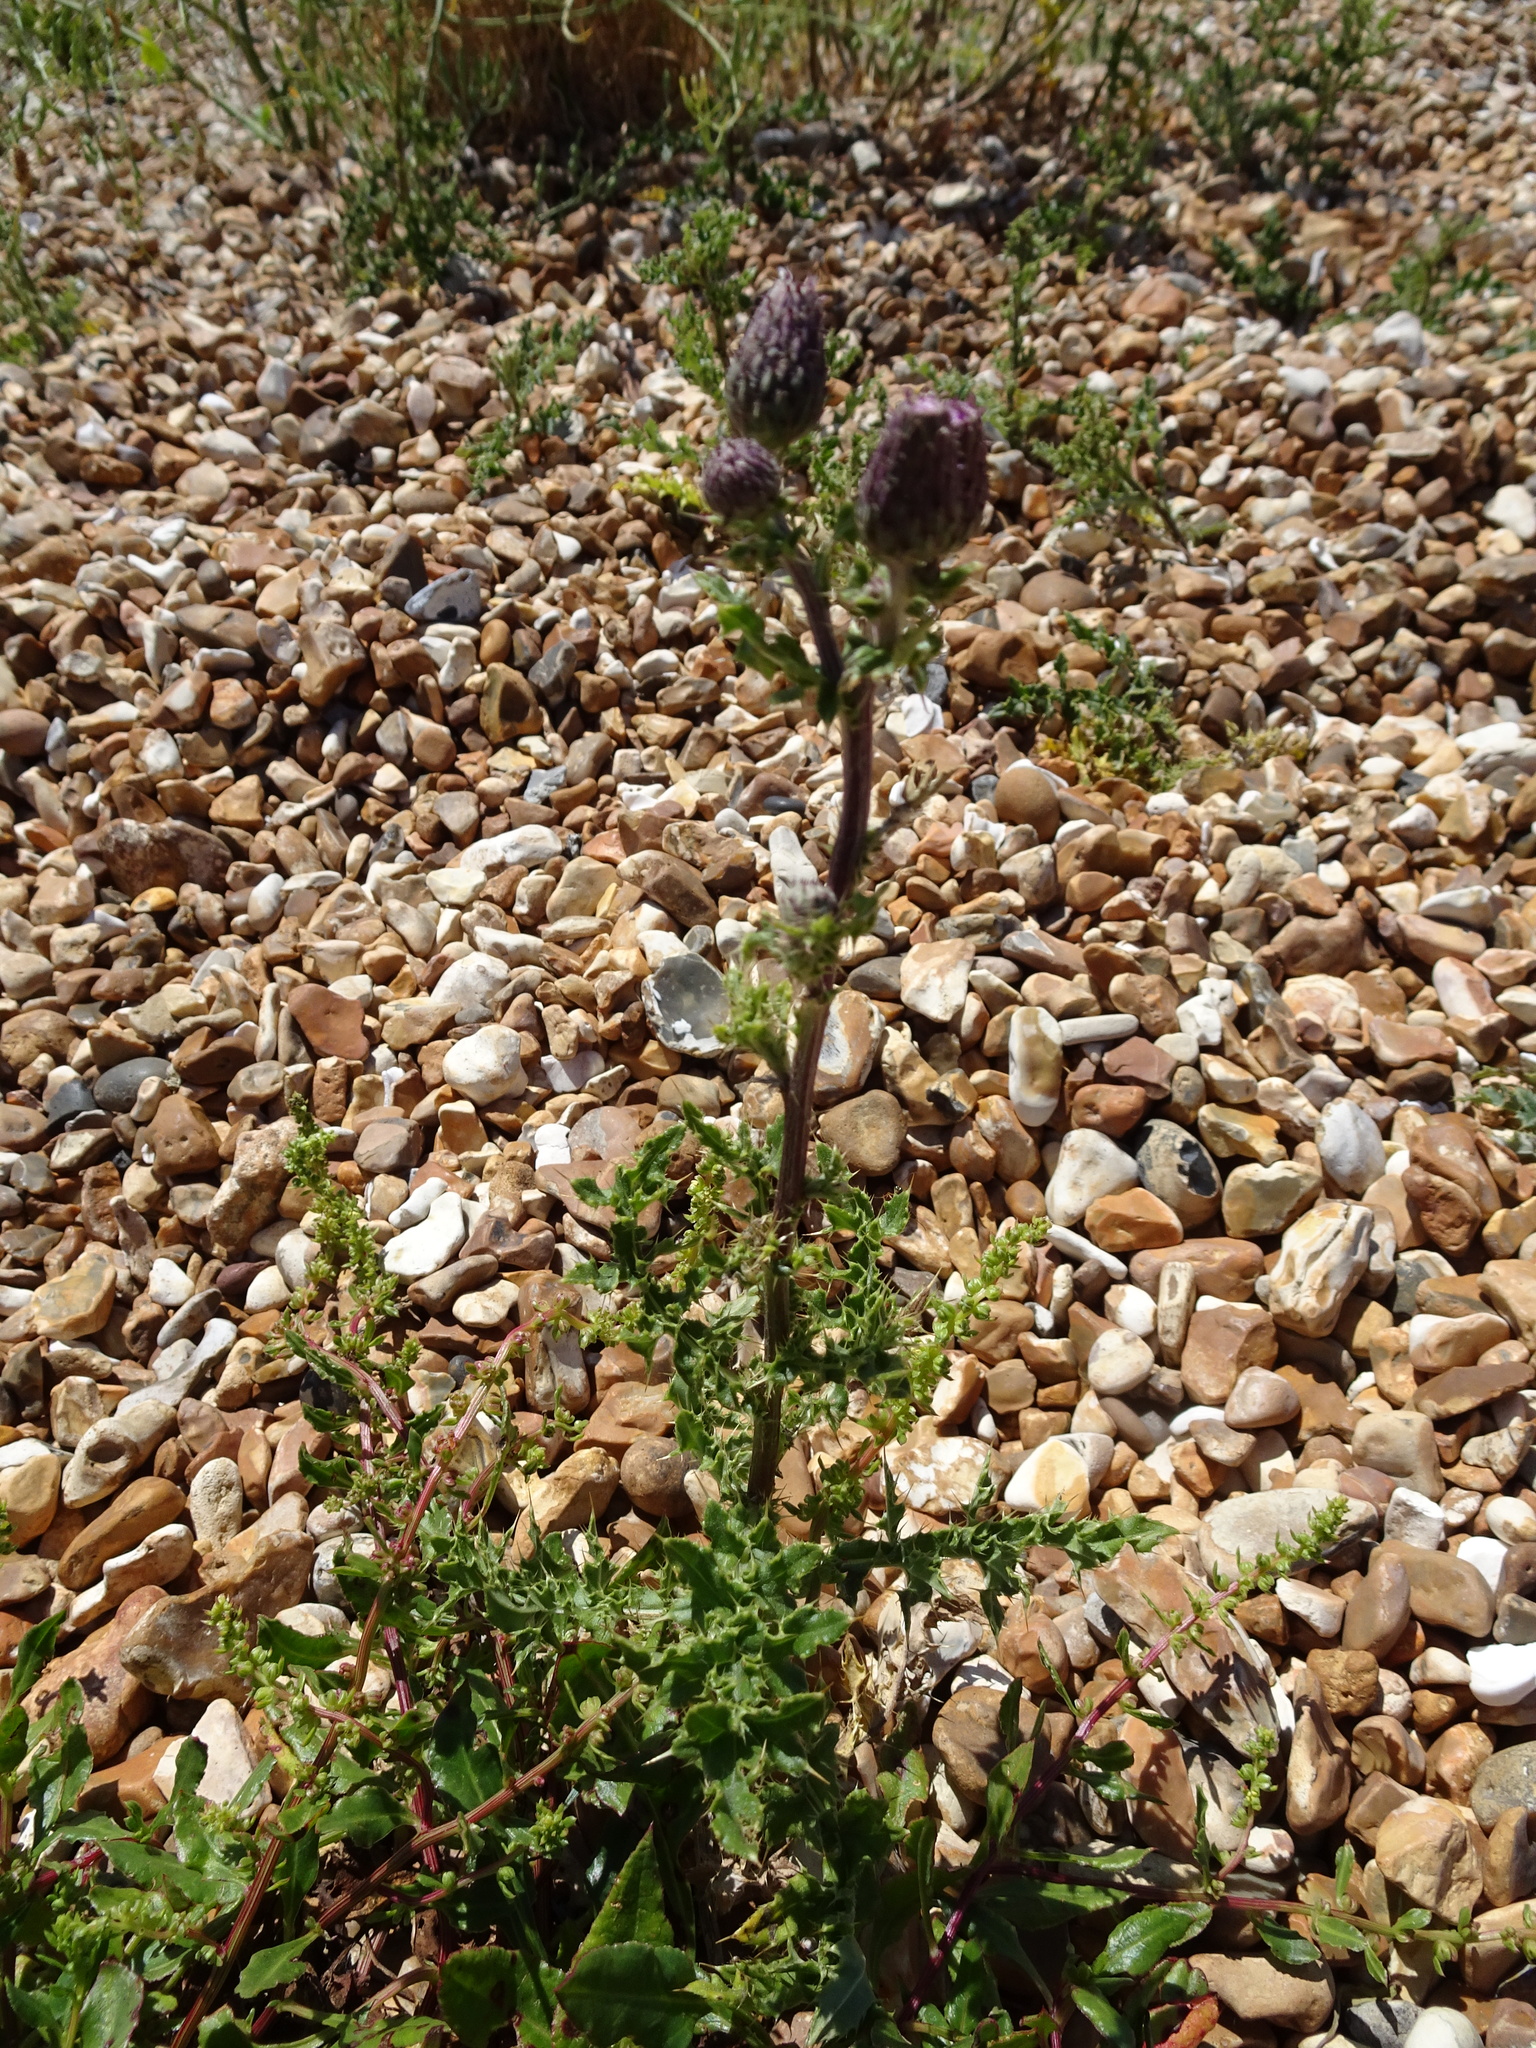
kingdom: Plantae
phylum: Tracheophyta
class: Magnoliopsida
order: Asterales
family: Asteraceae
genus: Cirsium
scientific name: Cirsium arvense
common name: Creeping thistle
